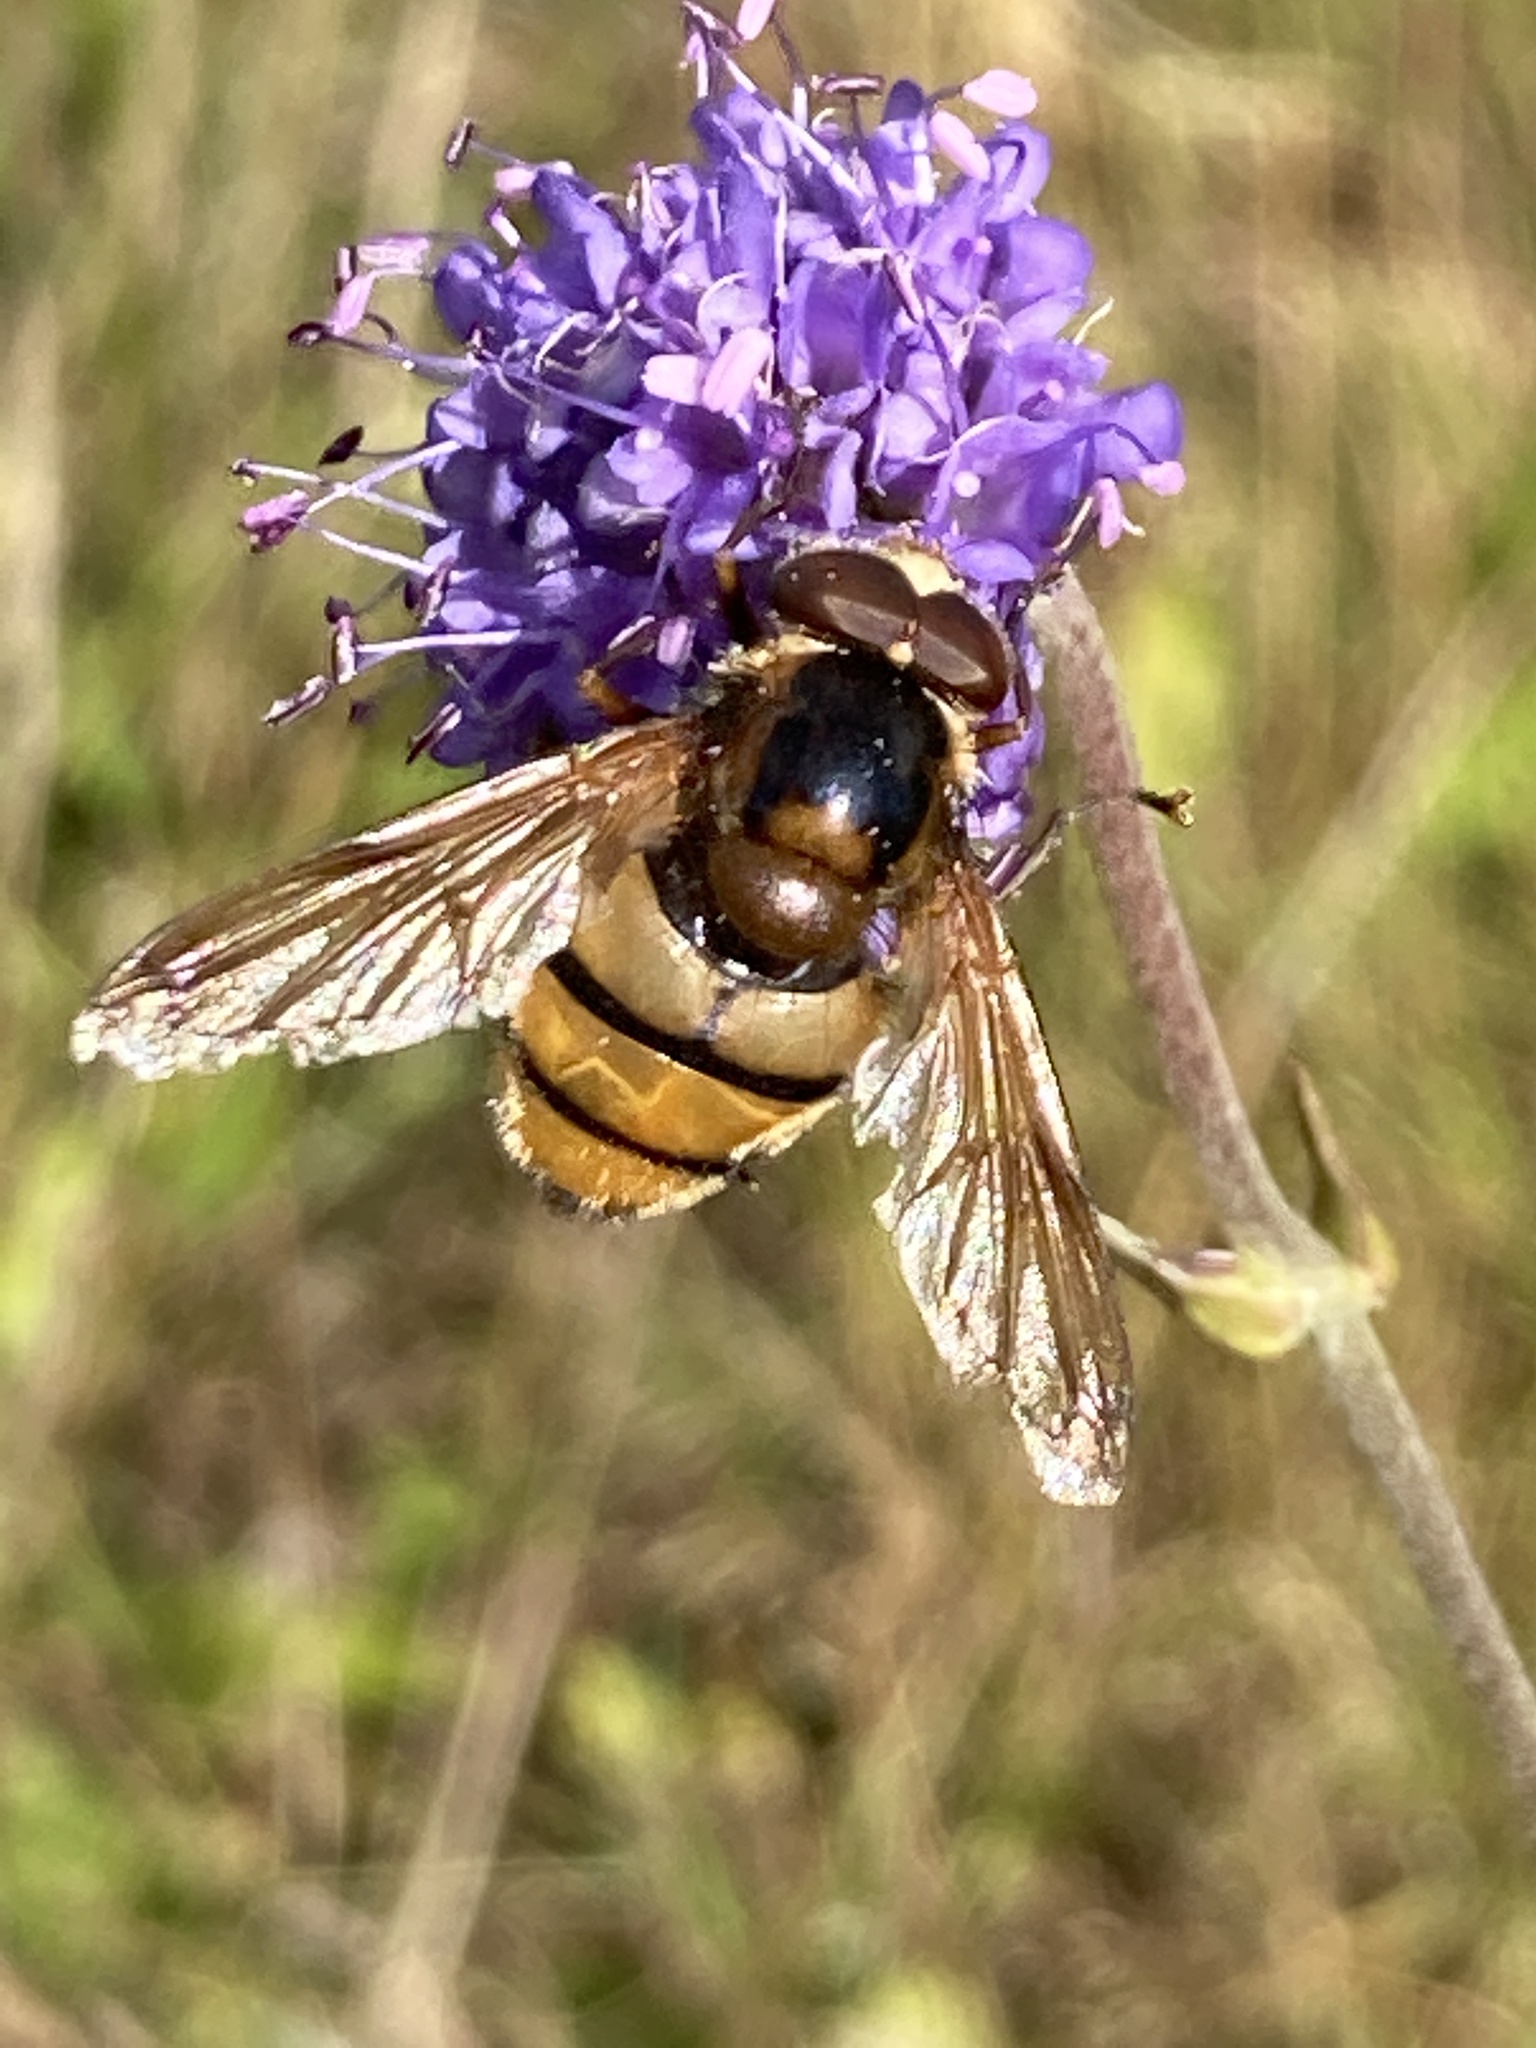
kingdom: Animalia
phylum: Arthropoda
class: Insecta
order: Diptera
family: Syrphidae
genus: Volucella
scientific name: Volucella inanis
